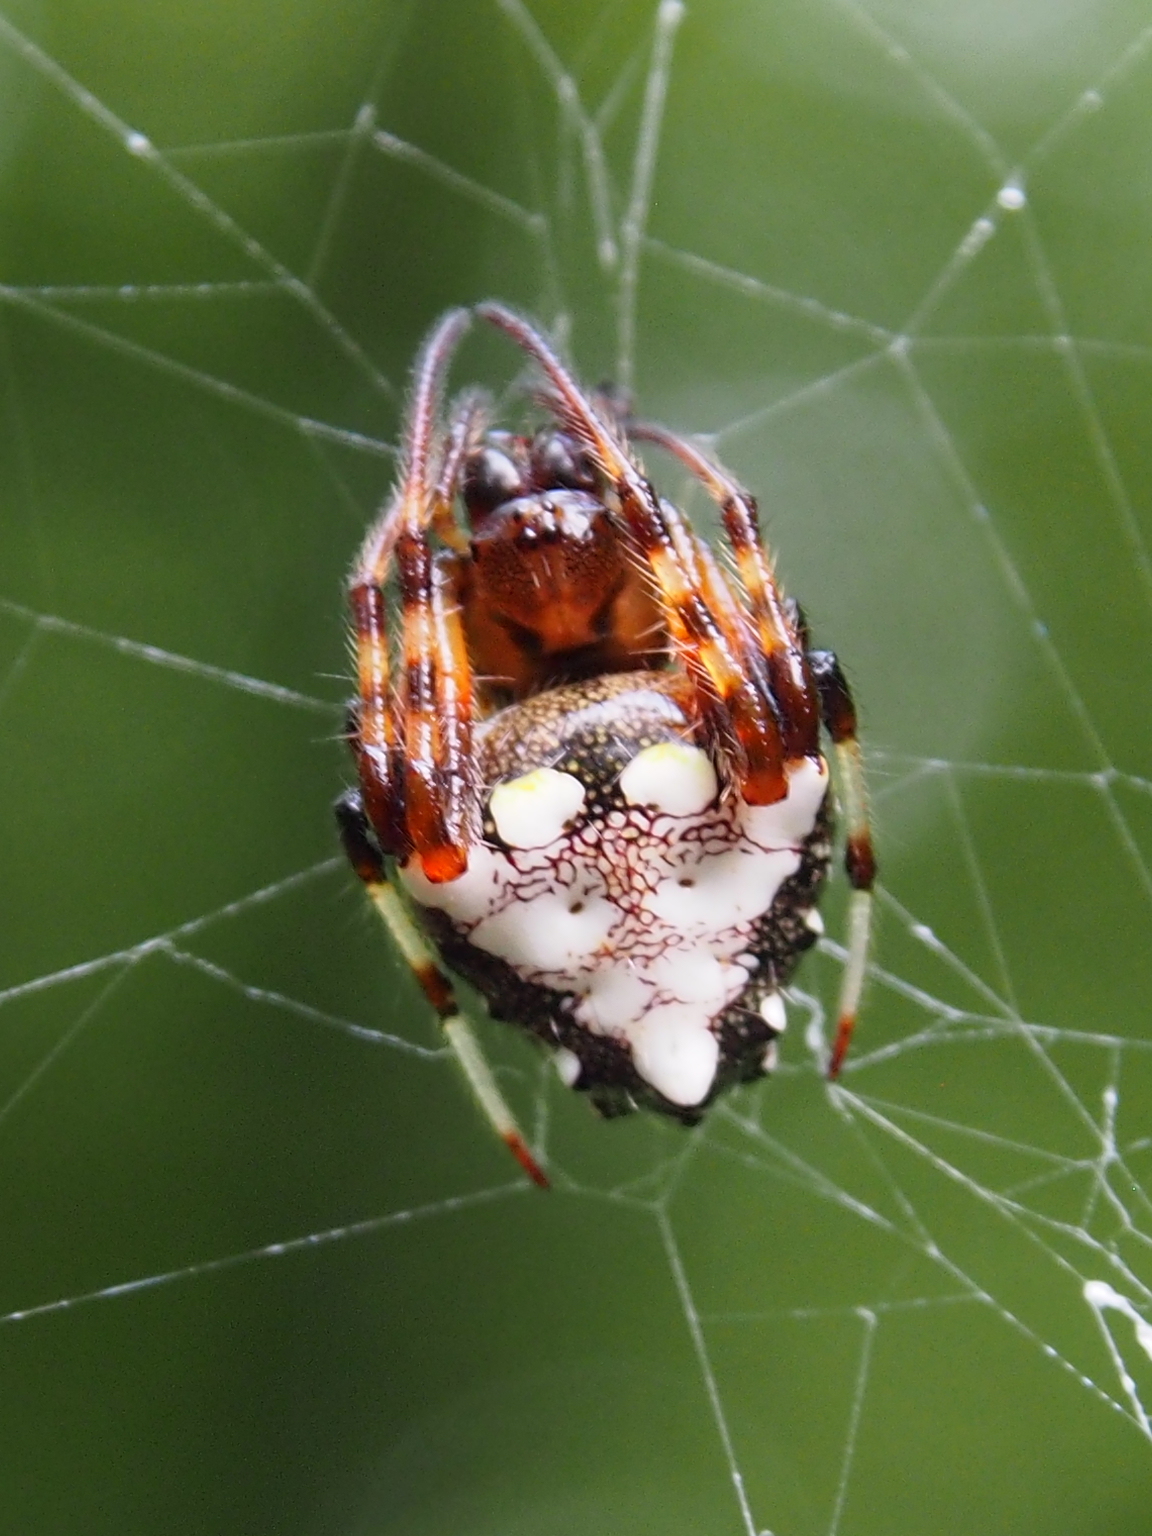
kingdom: Animalia
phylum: Arthropoda
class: Arachnida
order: Araneae
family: Araneidae
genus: Verrucosa
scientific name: Verrucosa arenata
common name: Orb weavers
